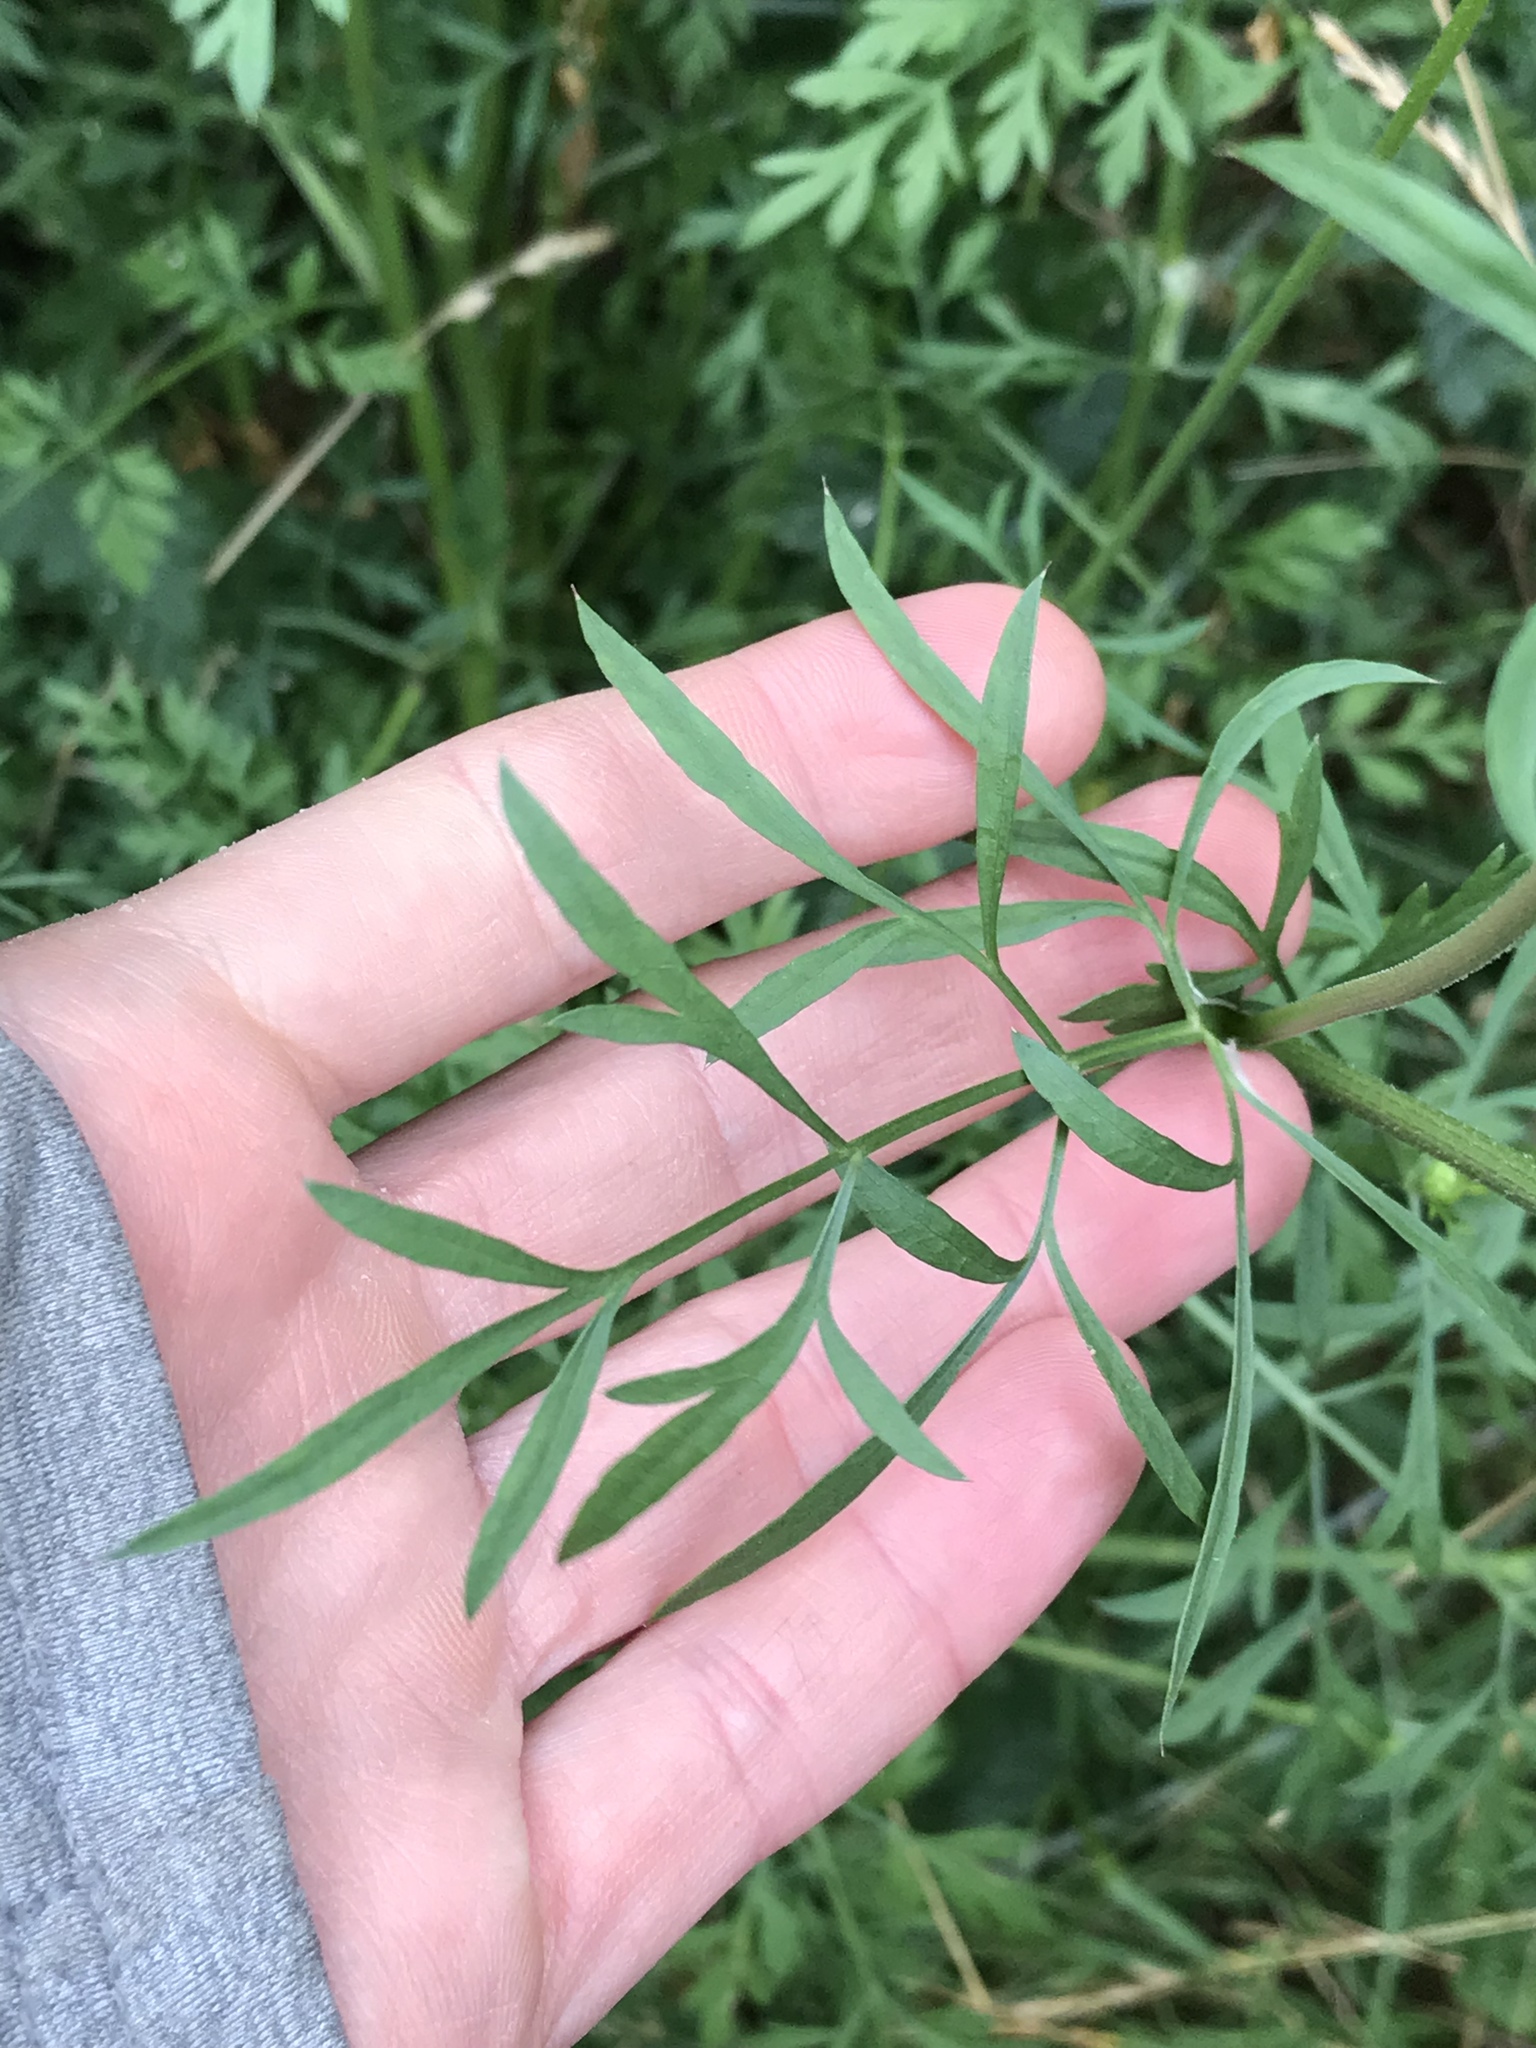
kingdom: Plantae
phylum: Tracheophyta
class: Magnoliopsida
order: Apiales
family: Apiaceae
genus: Daucus
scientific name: Daucus carota
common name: Wild carrot
